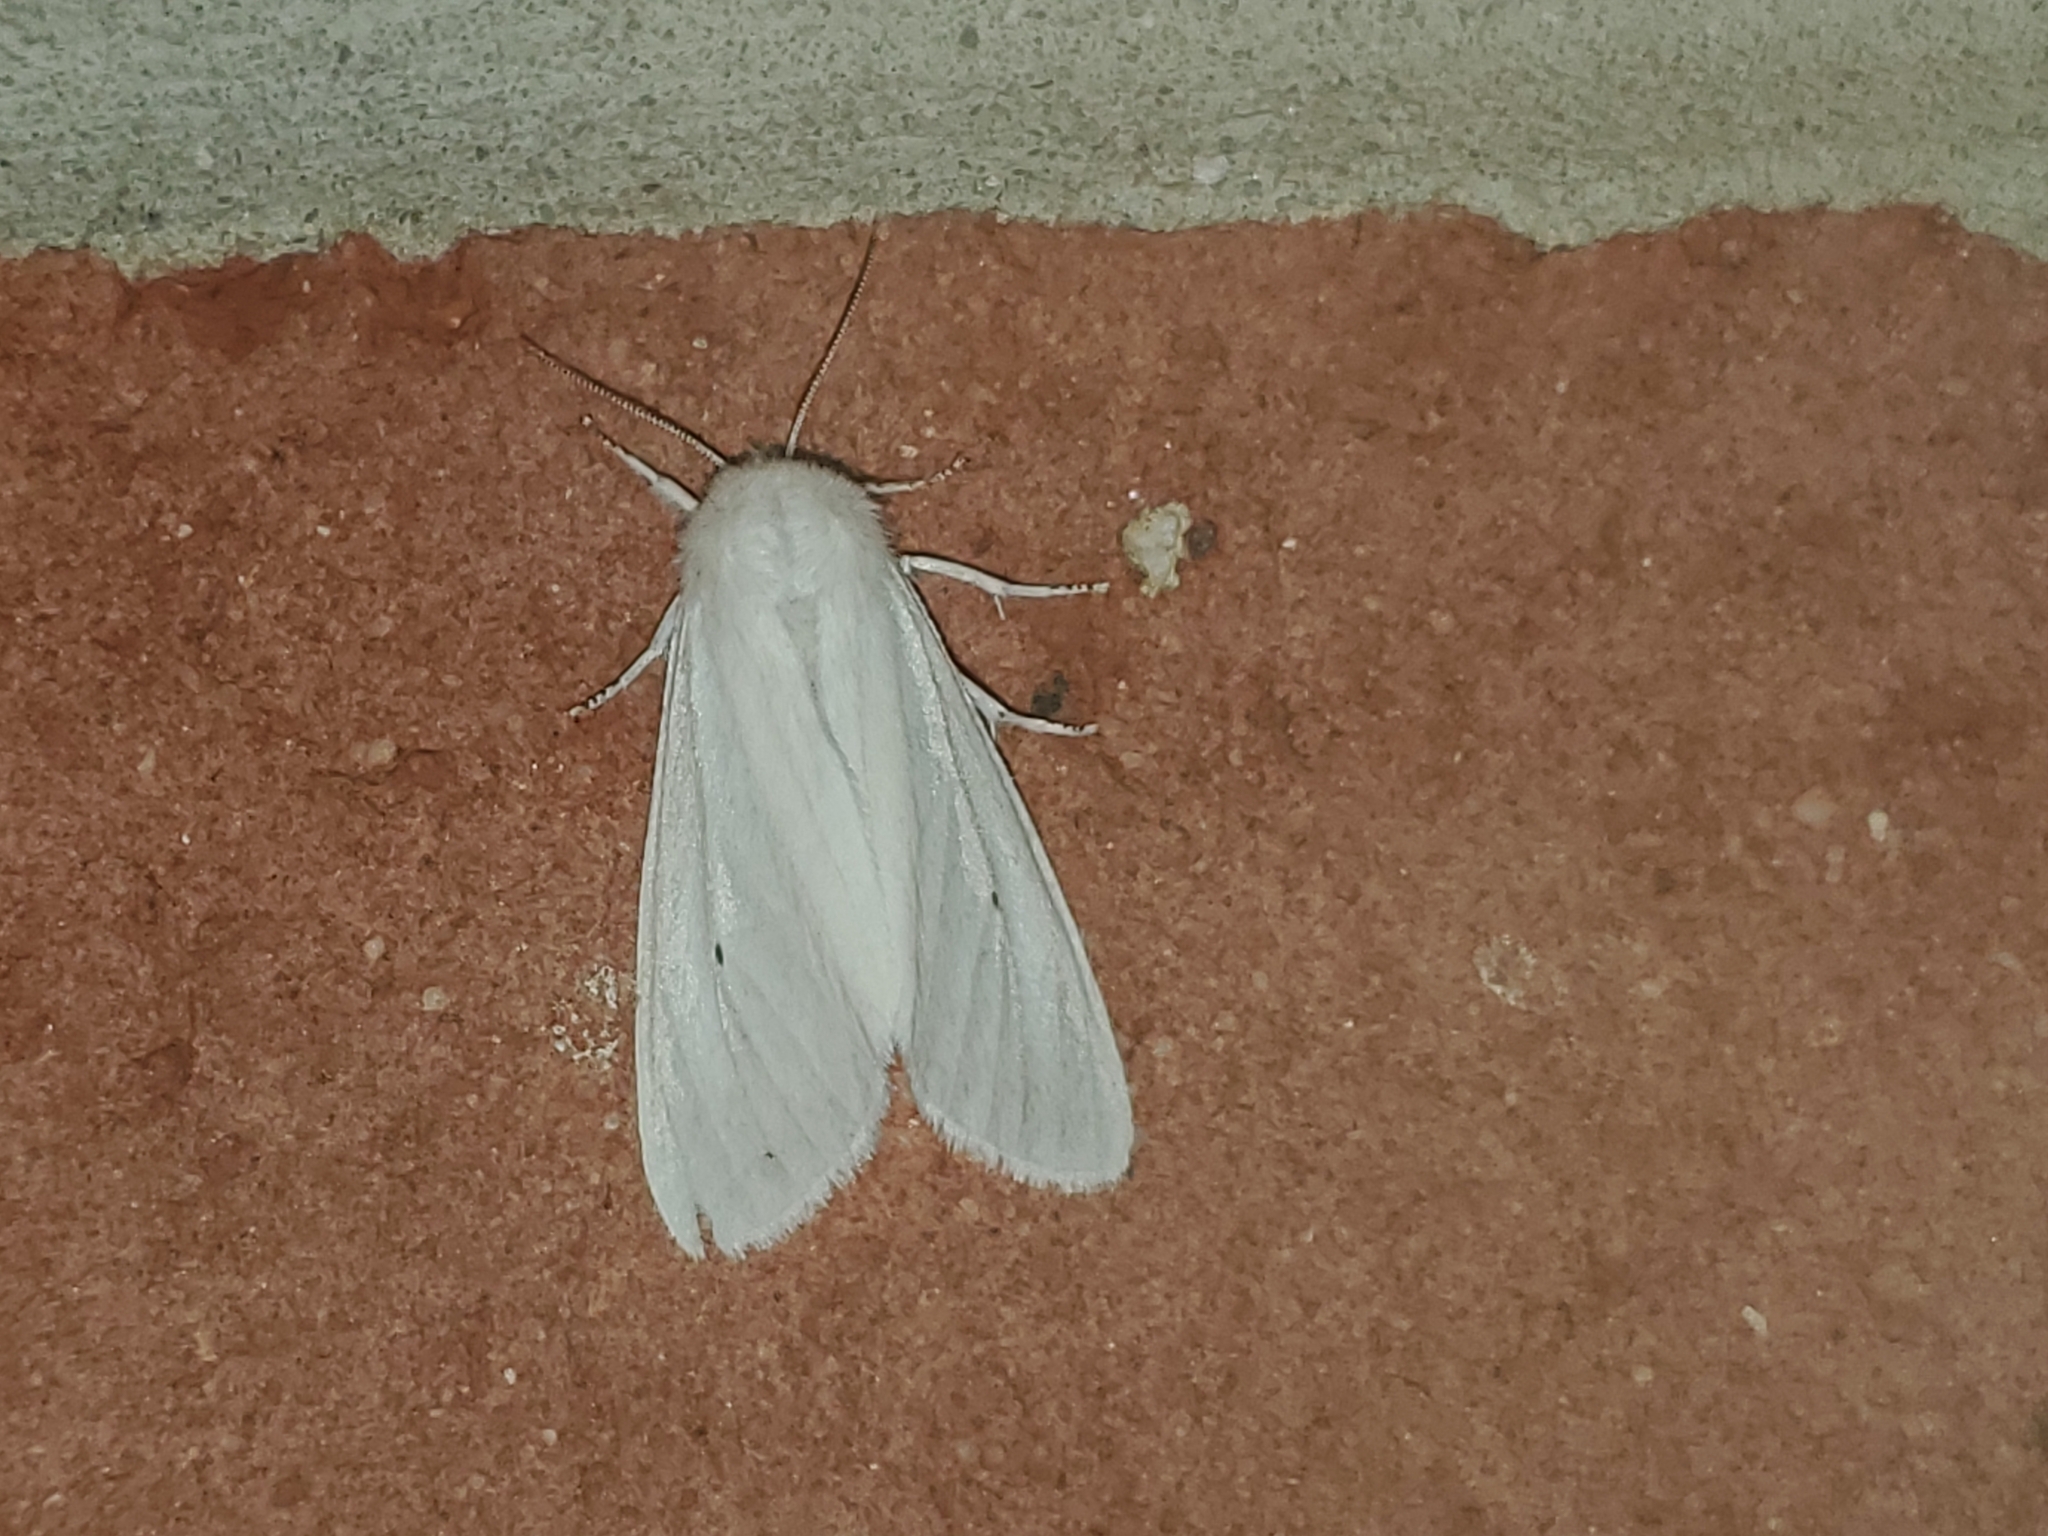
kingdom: Animalia
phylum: Arthropoda
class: Insecta
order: Lepidoptera
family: Erebidae
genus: Spilosoma
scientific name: Spilosoma virginica
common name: Virginia tiger moth
